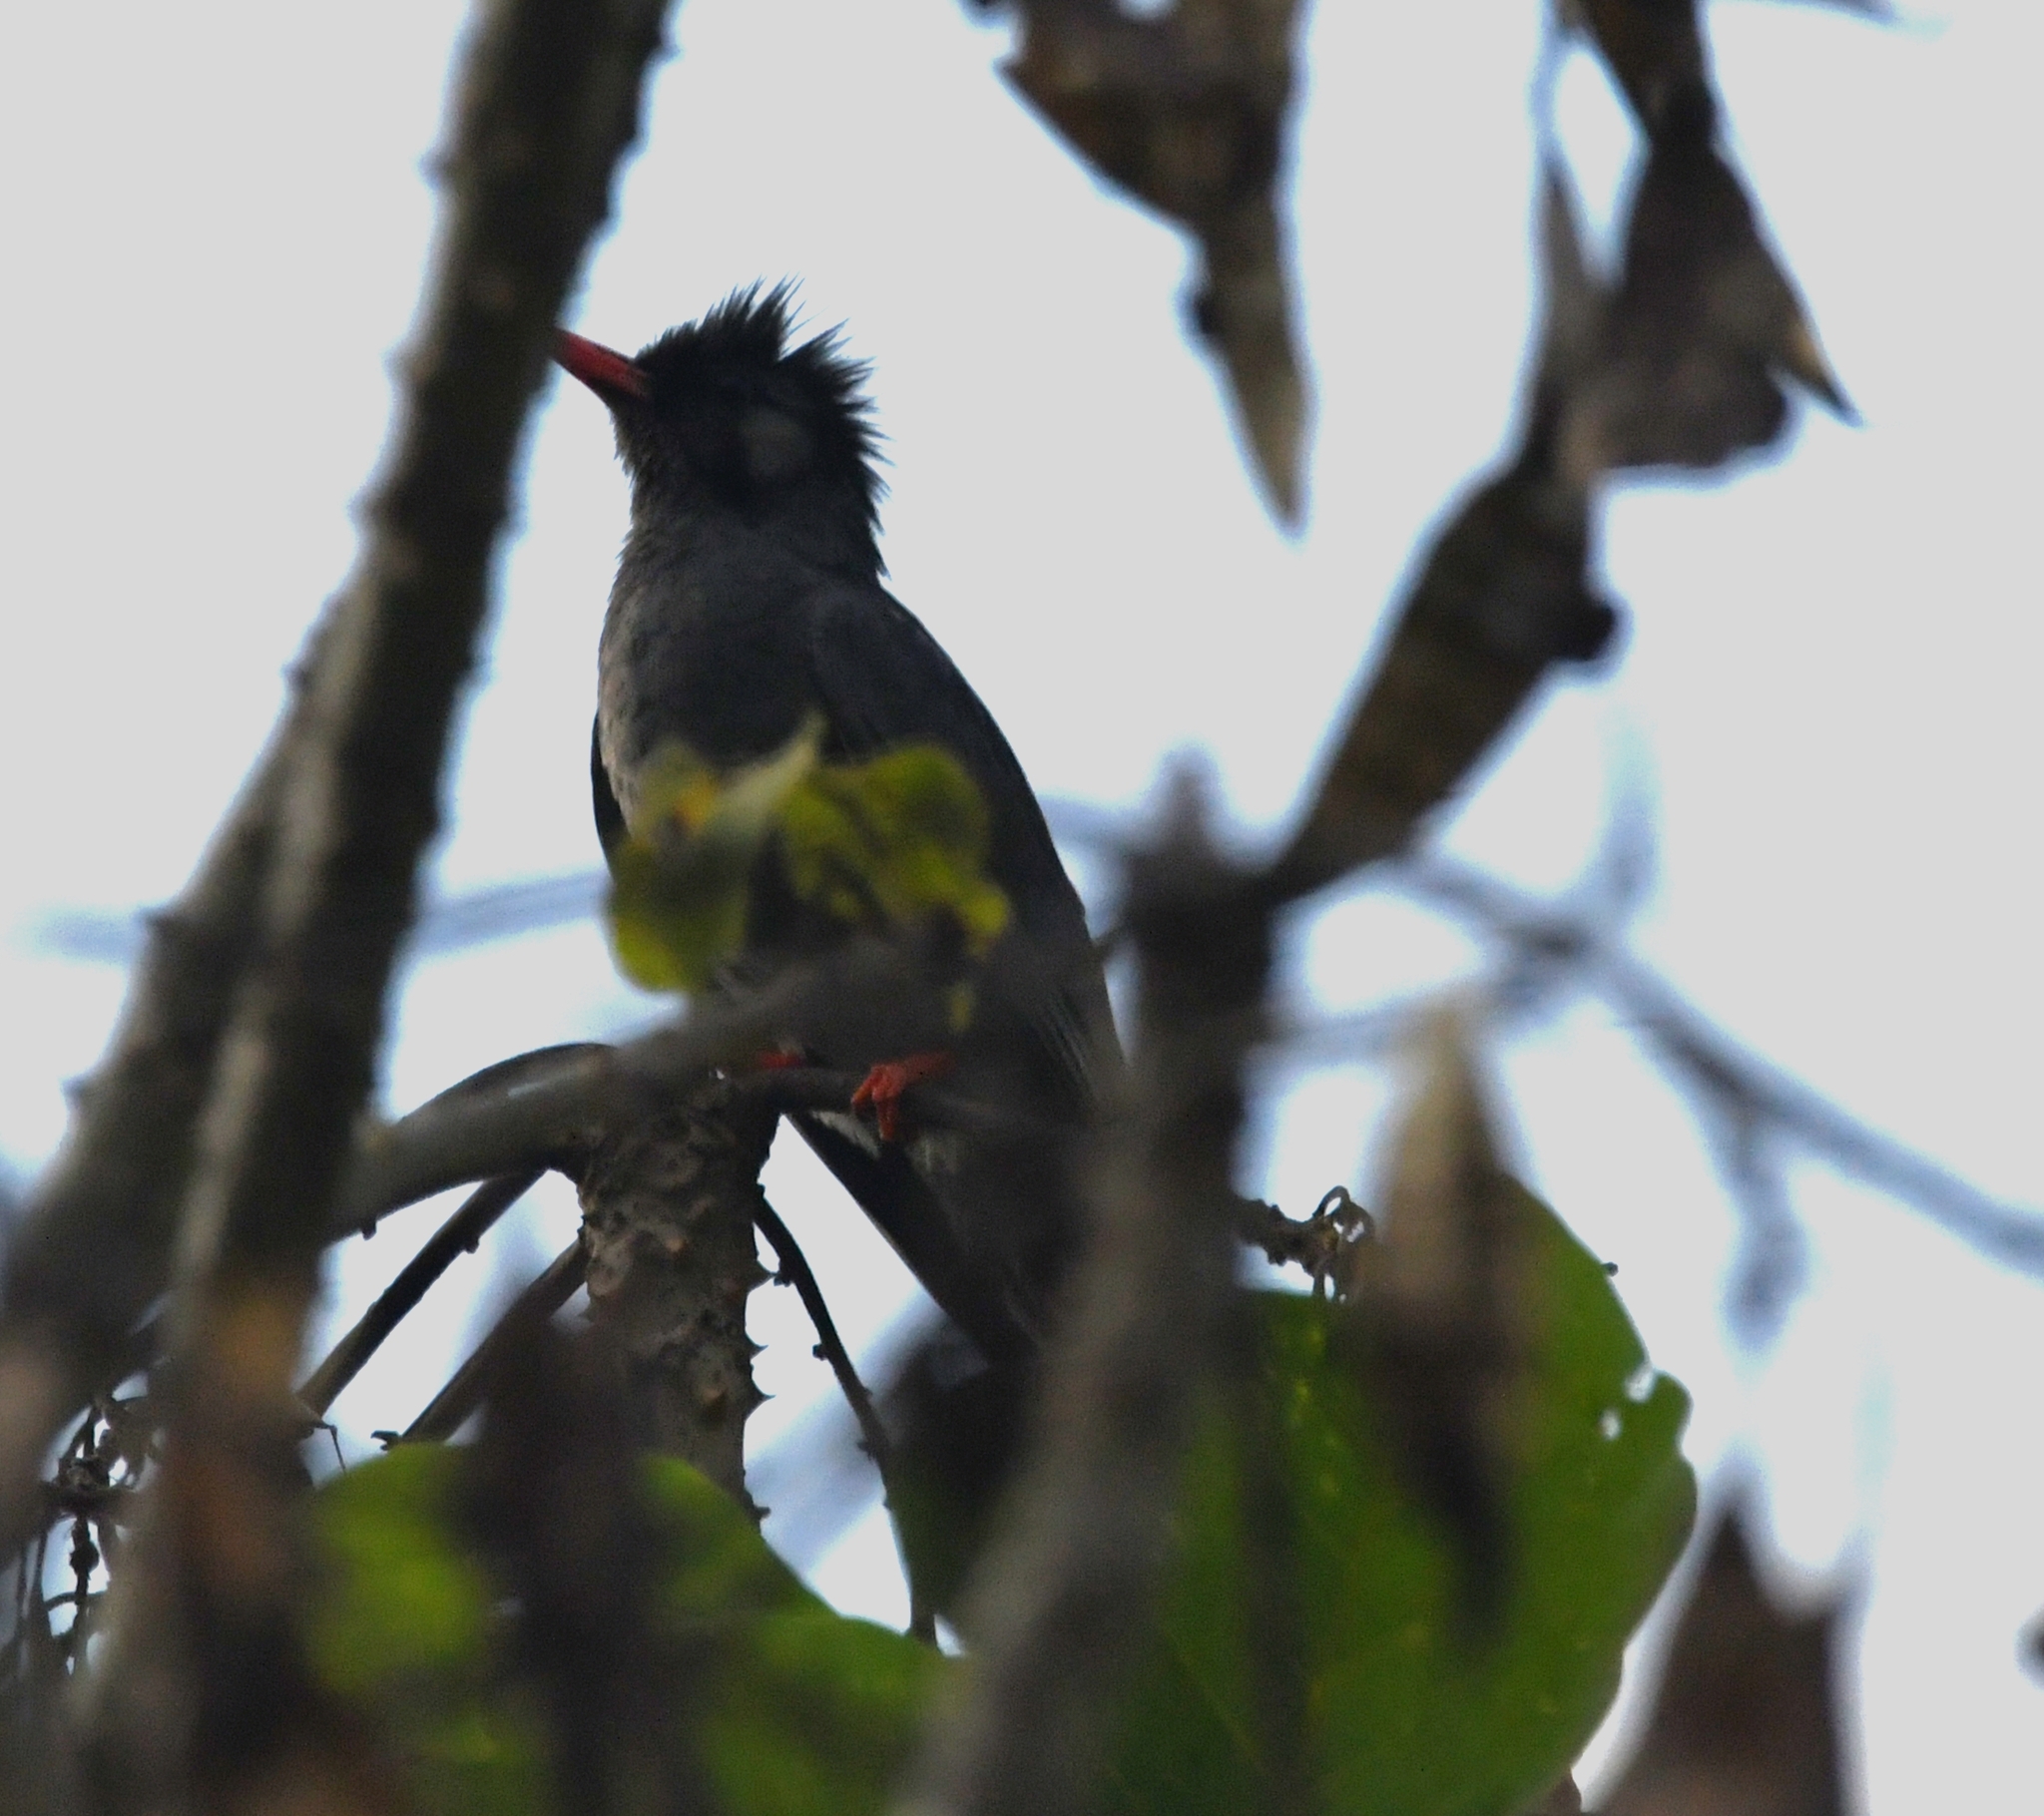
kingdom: Animalia
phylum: Chordata
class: Aves
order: Passeriformes
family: Pycnonotidae
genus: Hypsipetes
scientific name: Hypsipetes leucocephalus
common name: Black bulbul
